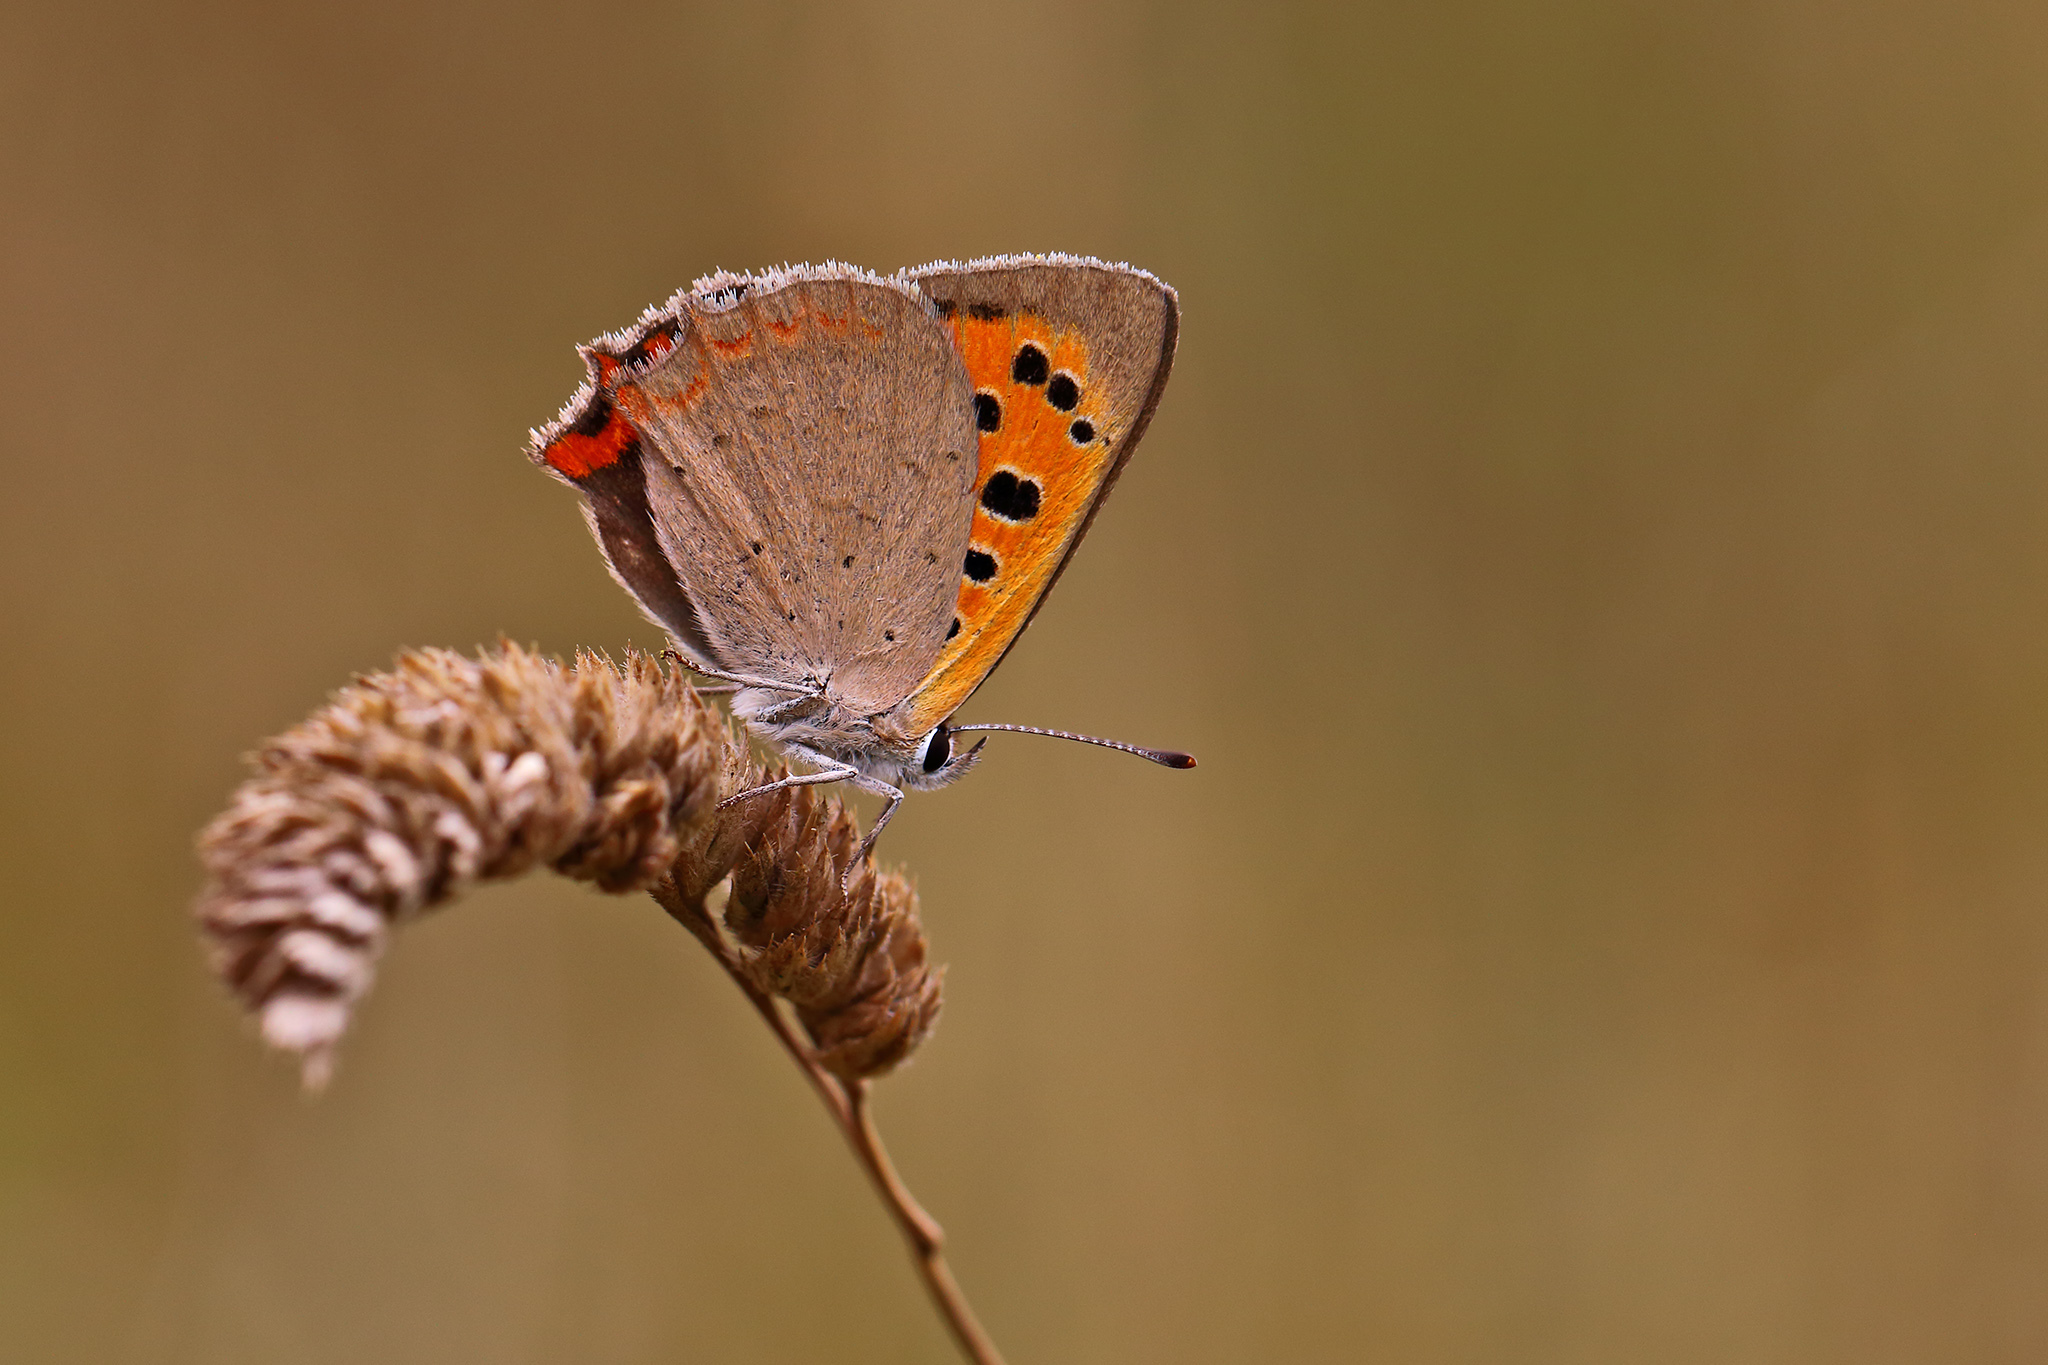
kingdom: Animalia
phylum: Arthropoda
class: Insecta
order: Lepidoptera
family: Lycaenidae
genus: Lycaena
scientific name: Lycaena phlaeas
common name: Small copper
